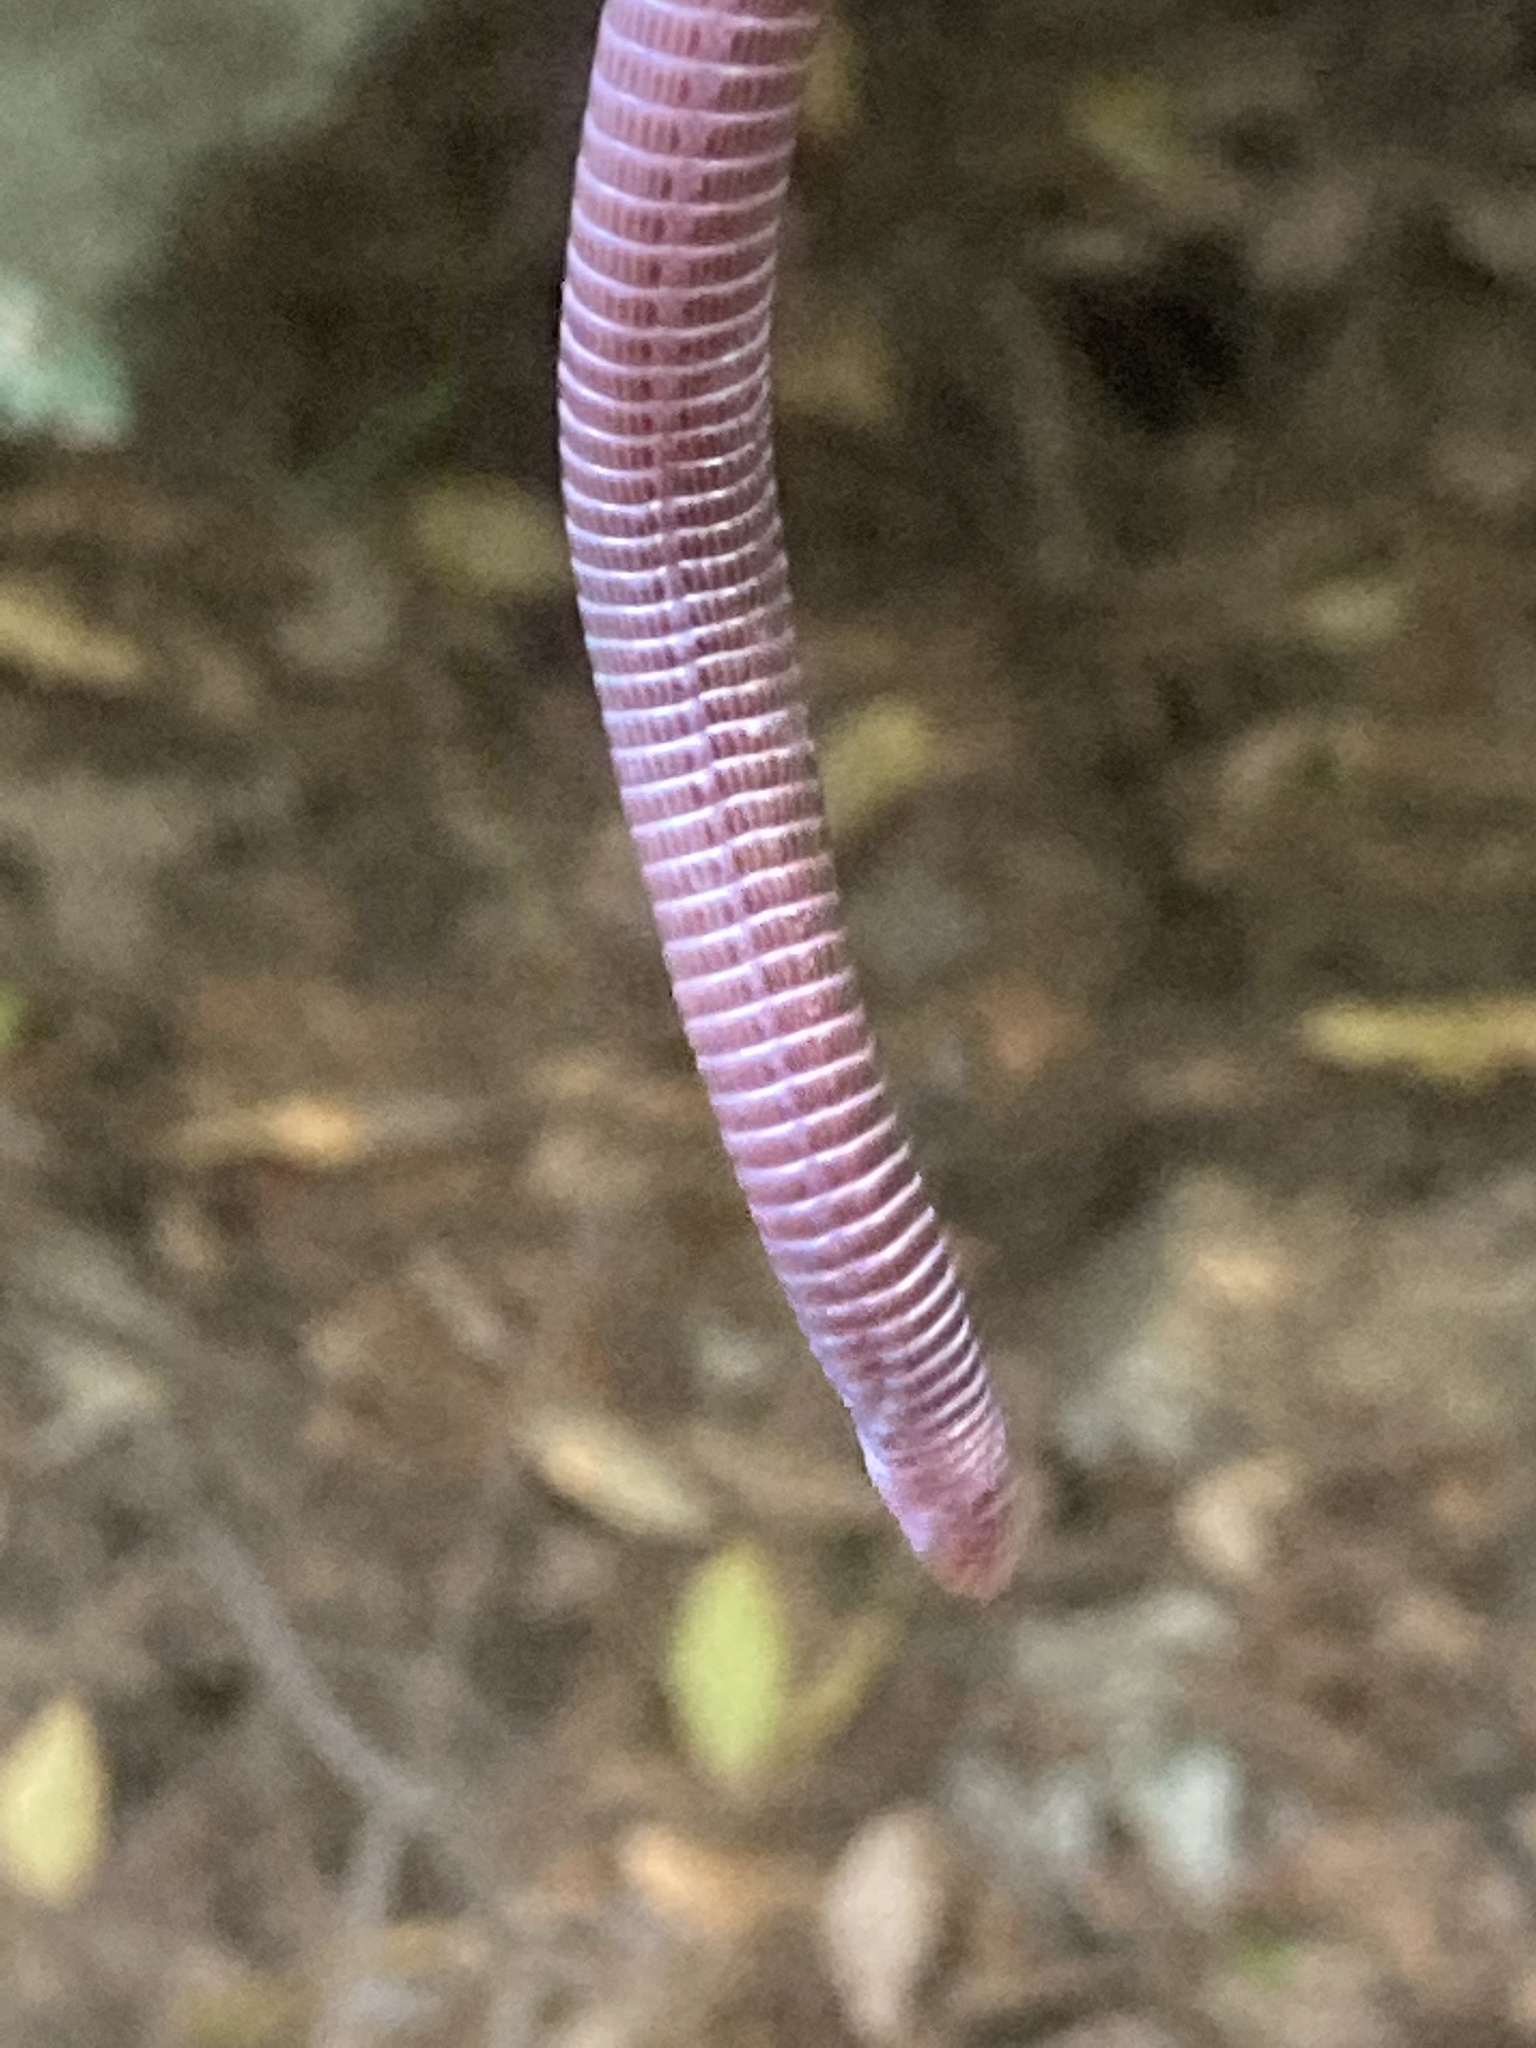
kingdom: Animalia
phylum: Chordata
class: Squamata
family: Blanidae
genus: Blanus
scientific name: Blanus aporus
